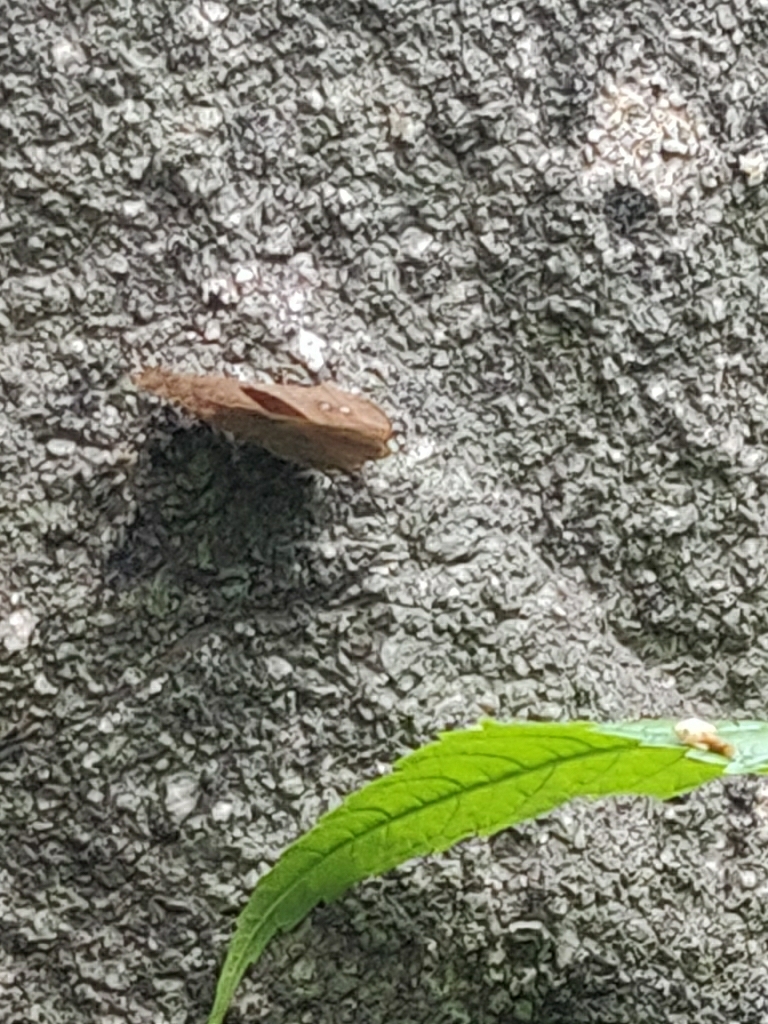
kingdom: Animalia
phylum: Arthropoda
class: Insecta
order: Lepidoptera
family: Nymphalidae
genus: Melanitis
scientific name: Melanitis leda
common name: Twilight brown
